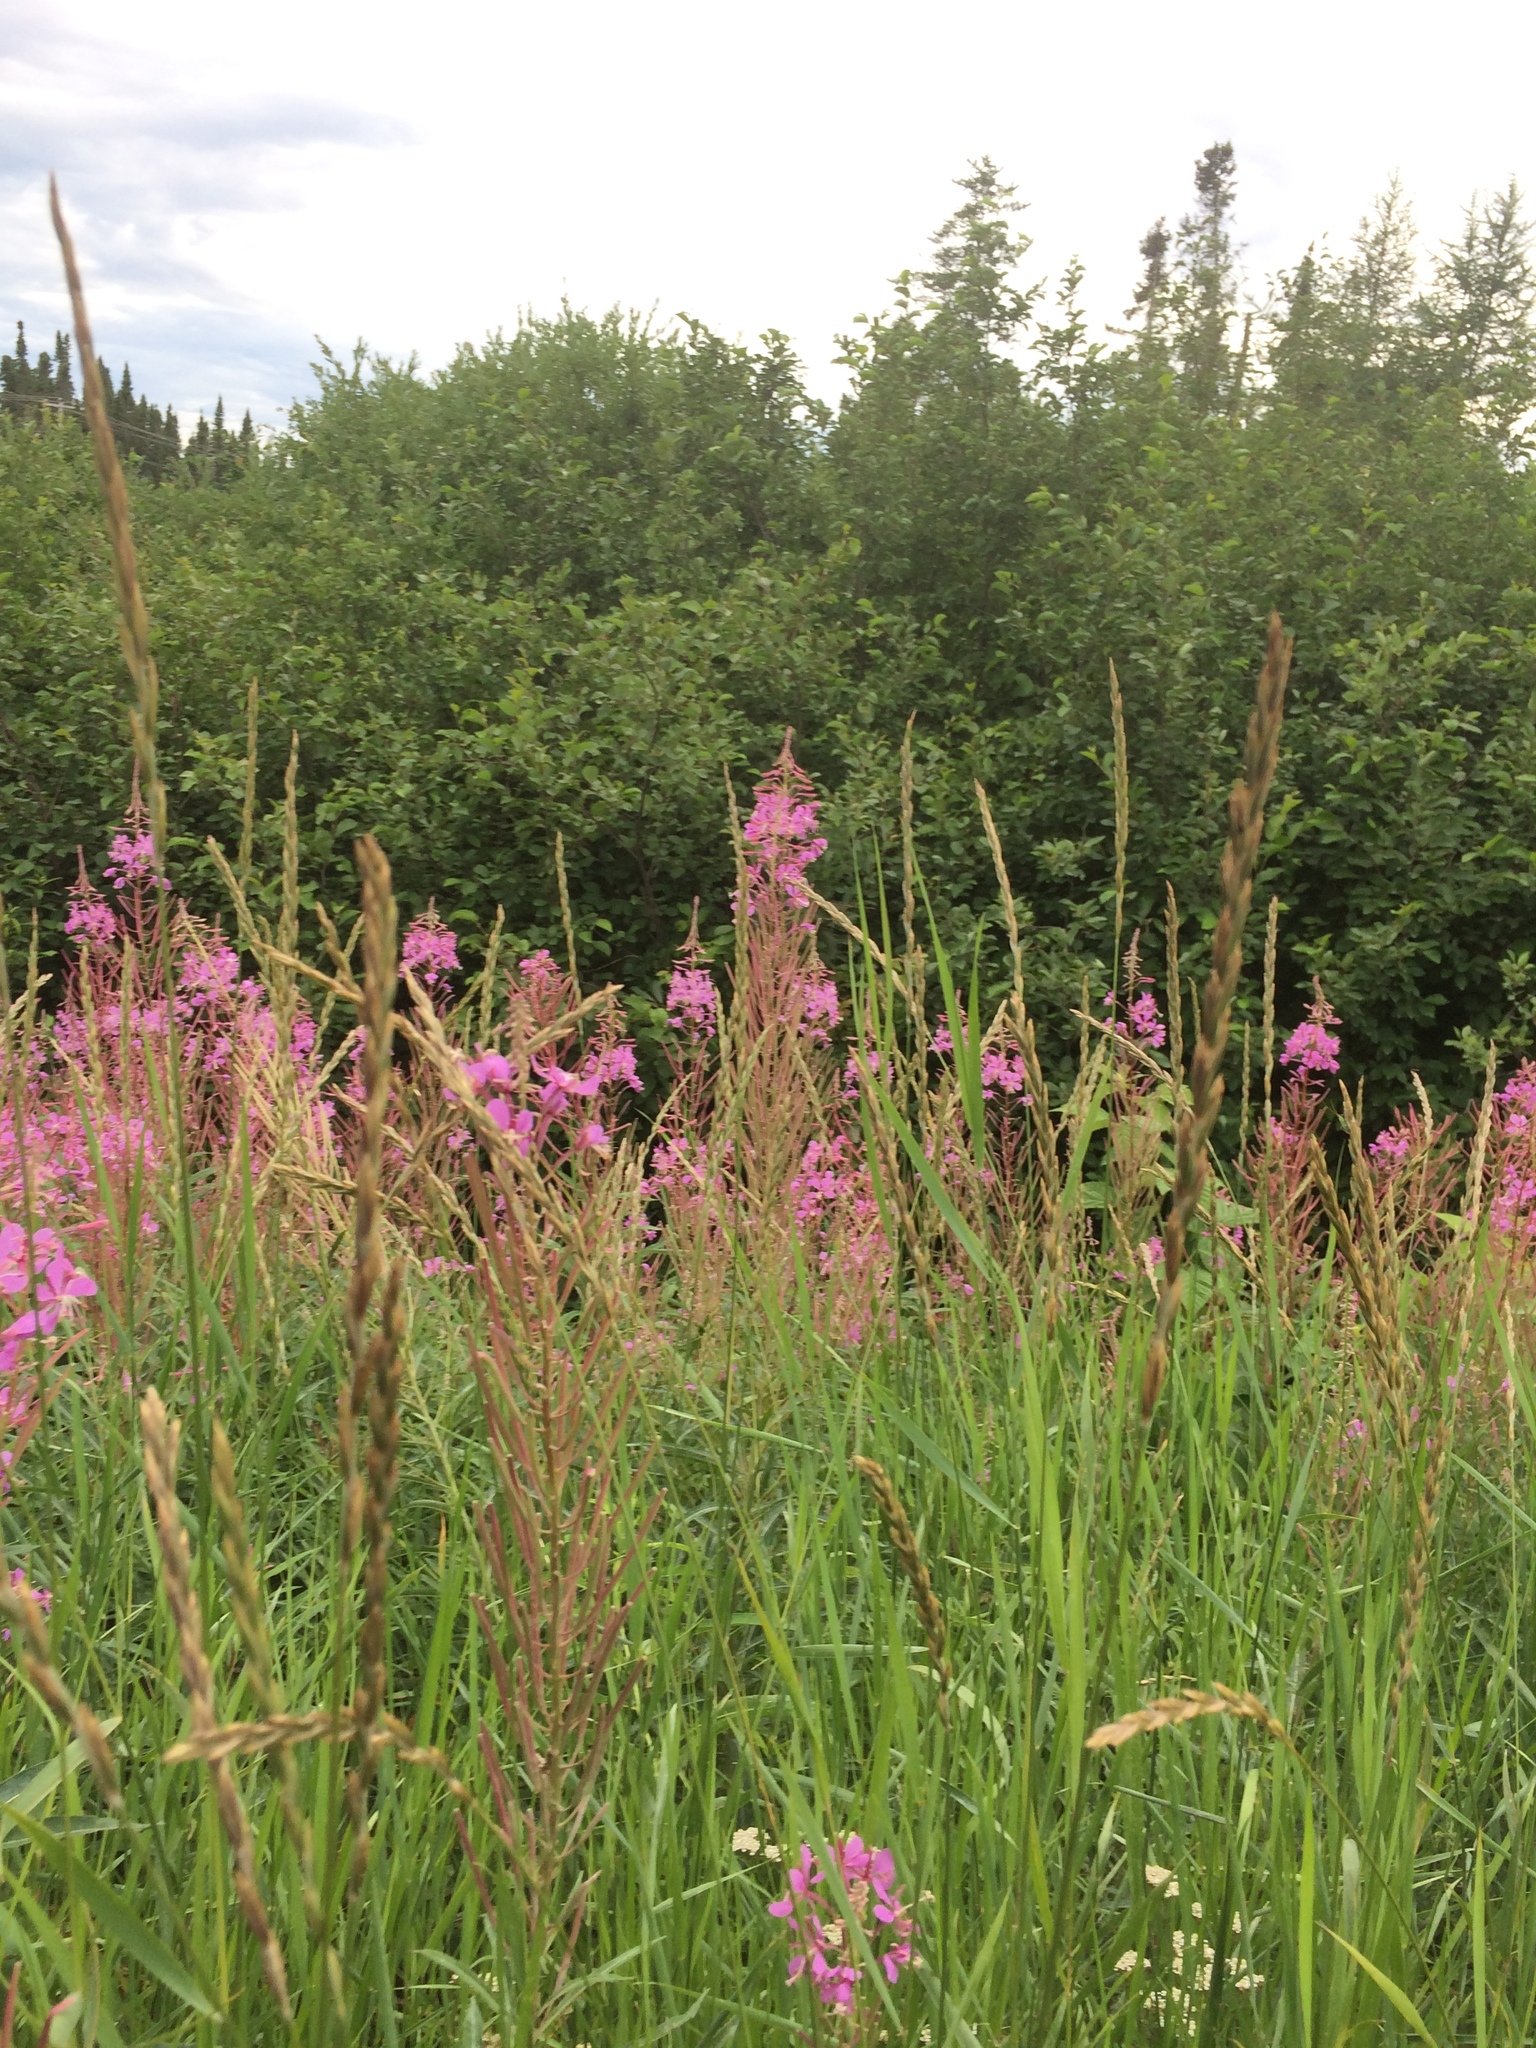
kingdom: Plantae
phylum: Tracheophyta
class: Magnoliopsida
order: Myrtales
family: Onagraceae
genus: Chamaenerion
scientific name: Chamaenerion angustifolium
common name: Fireweed
